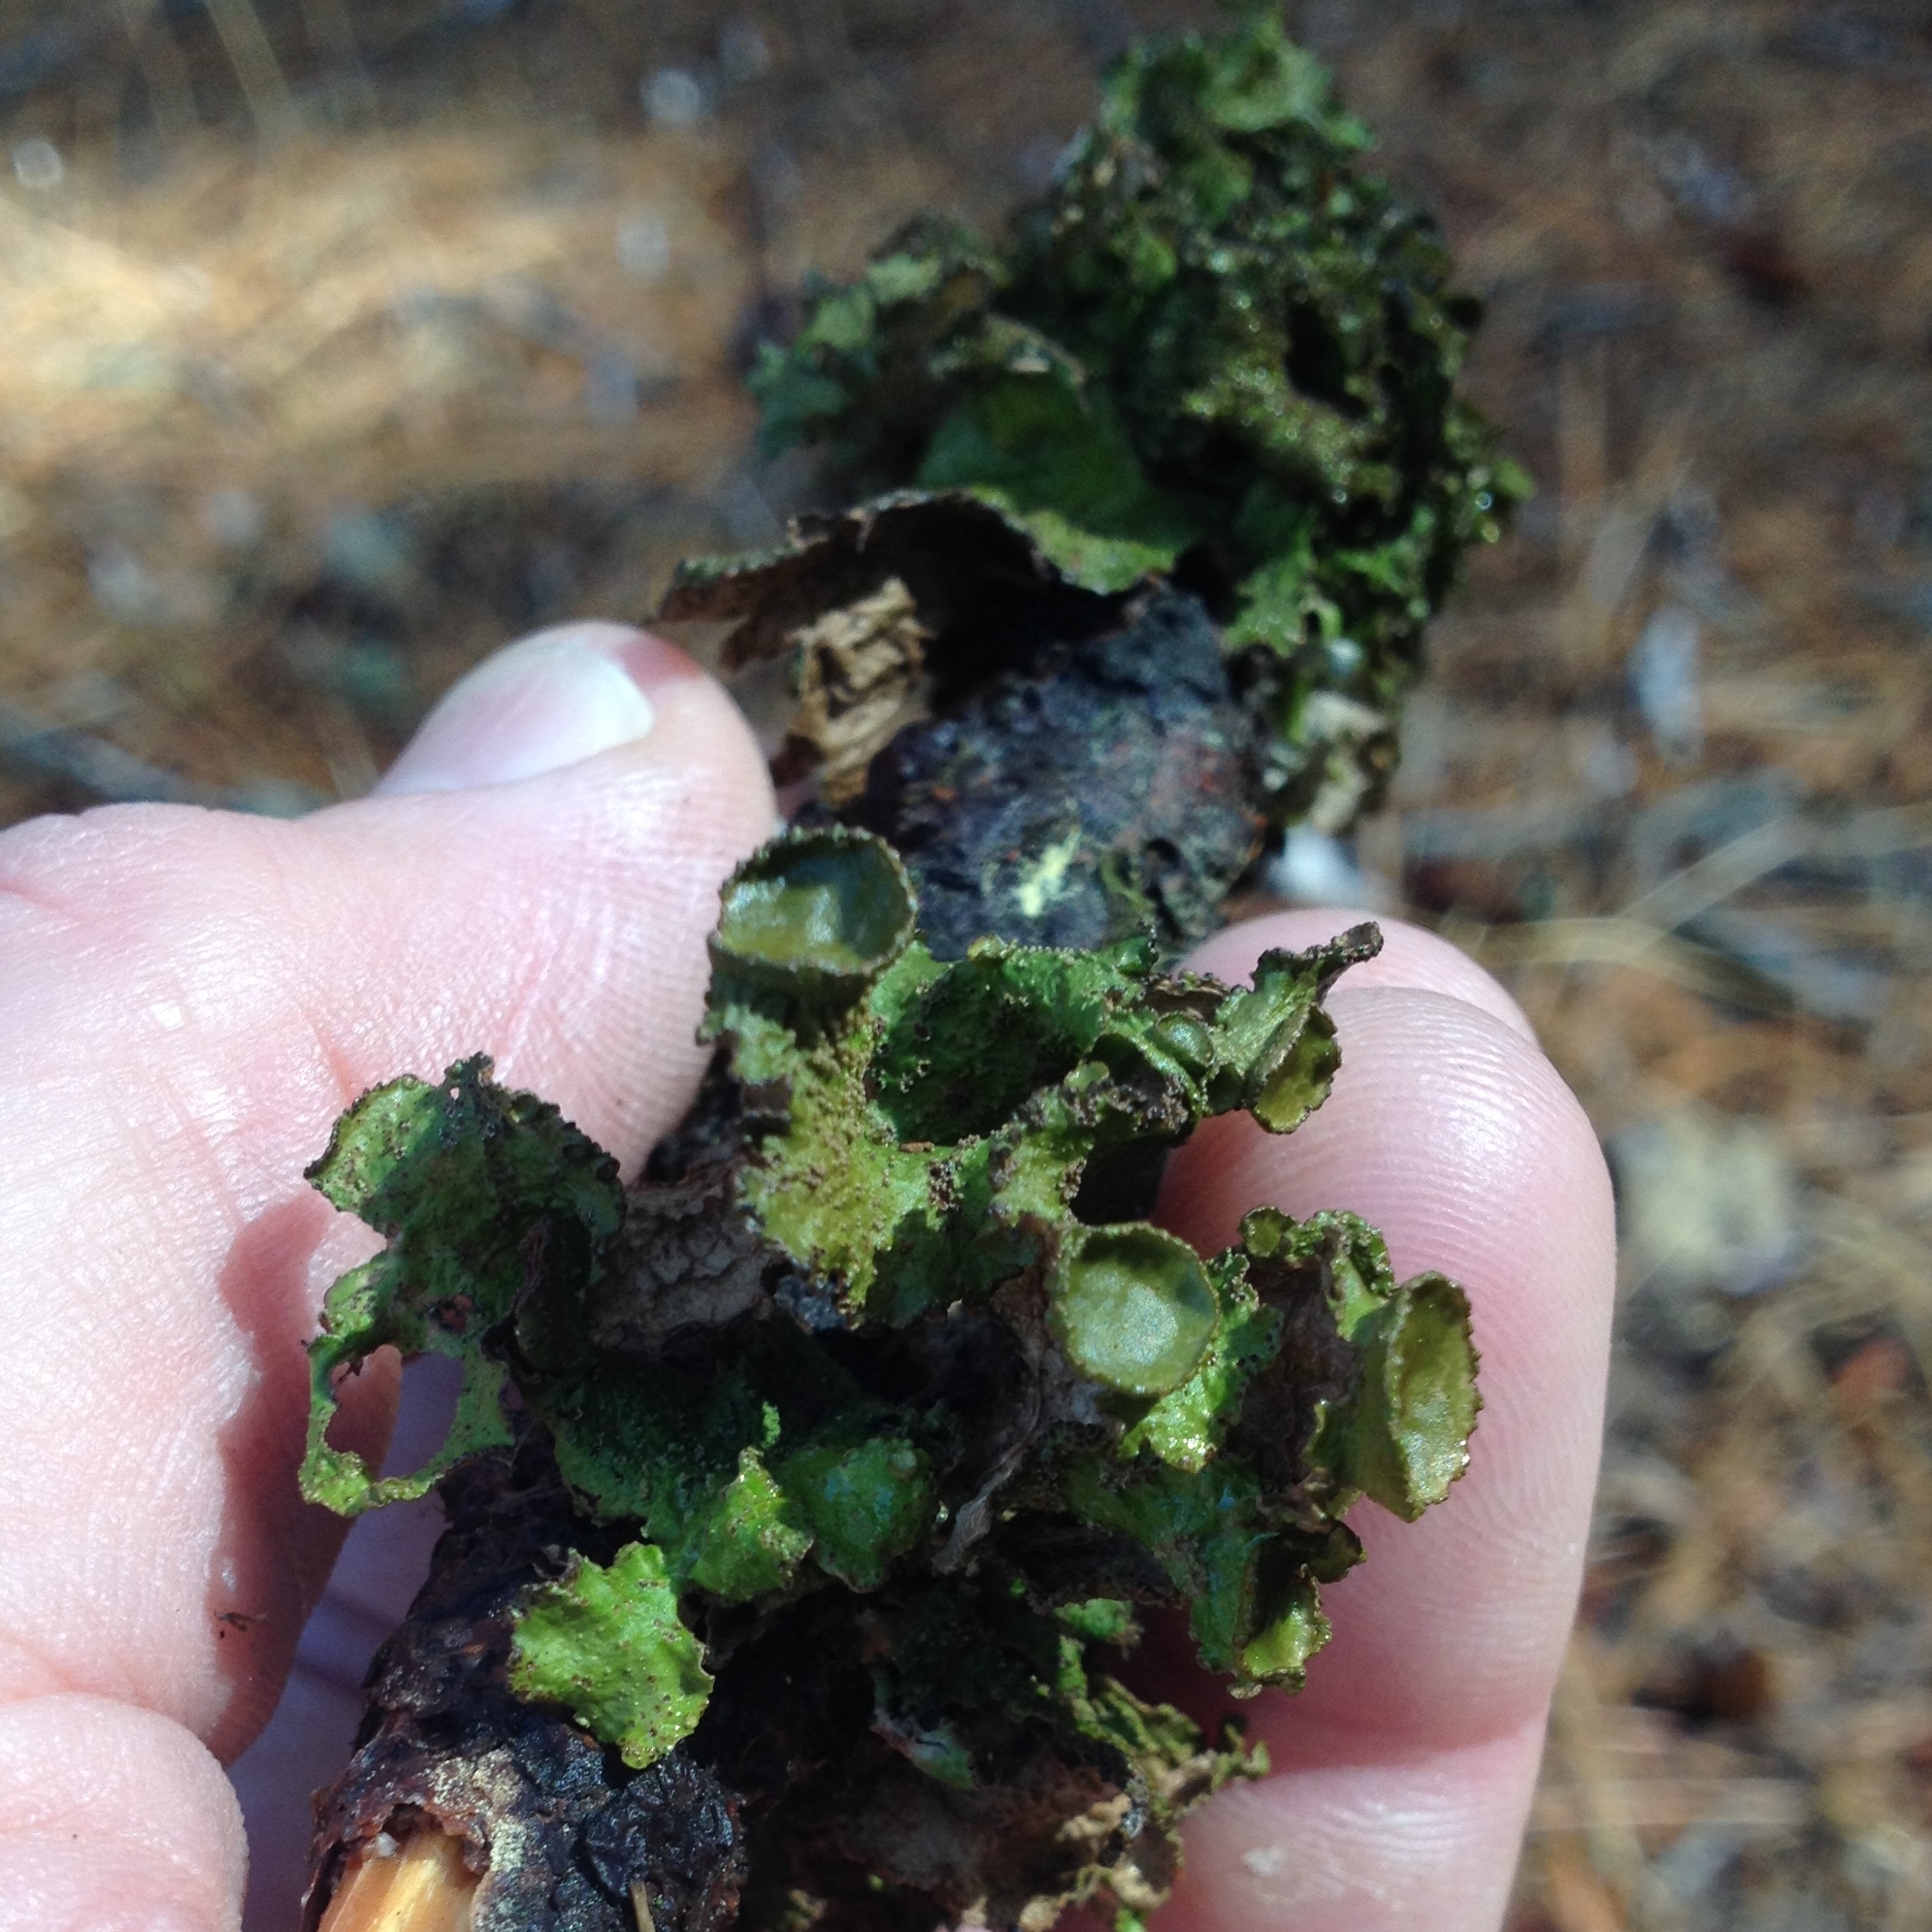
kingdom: Fungi
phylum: Ascomycota
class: Lecanoromycetes
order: Lecanorales
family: Parmeliaceae
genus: Tuckermanopsis
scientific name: Tuckermanopsis platyphylla
